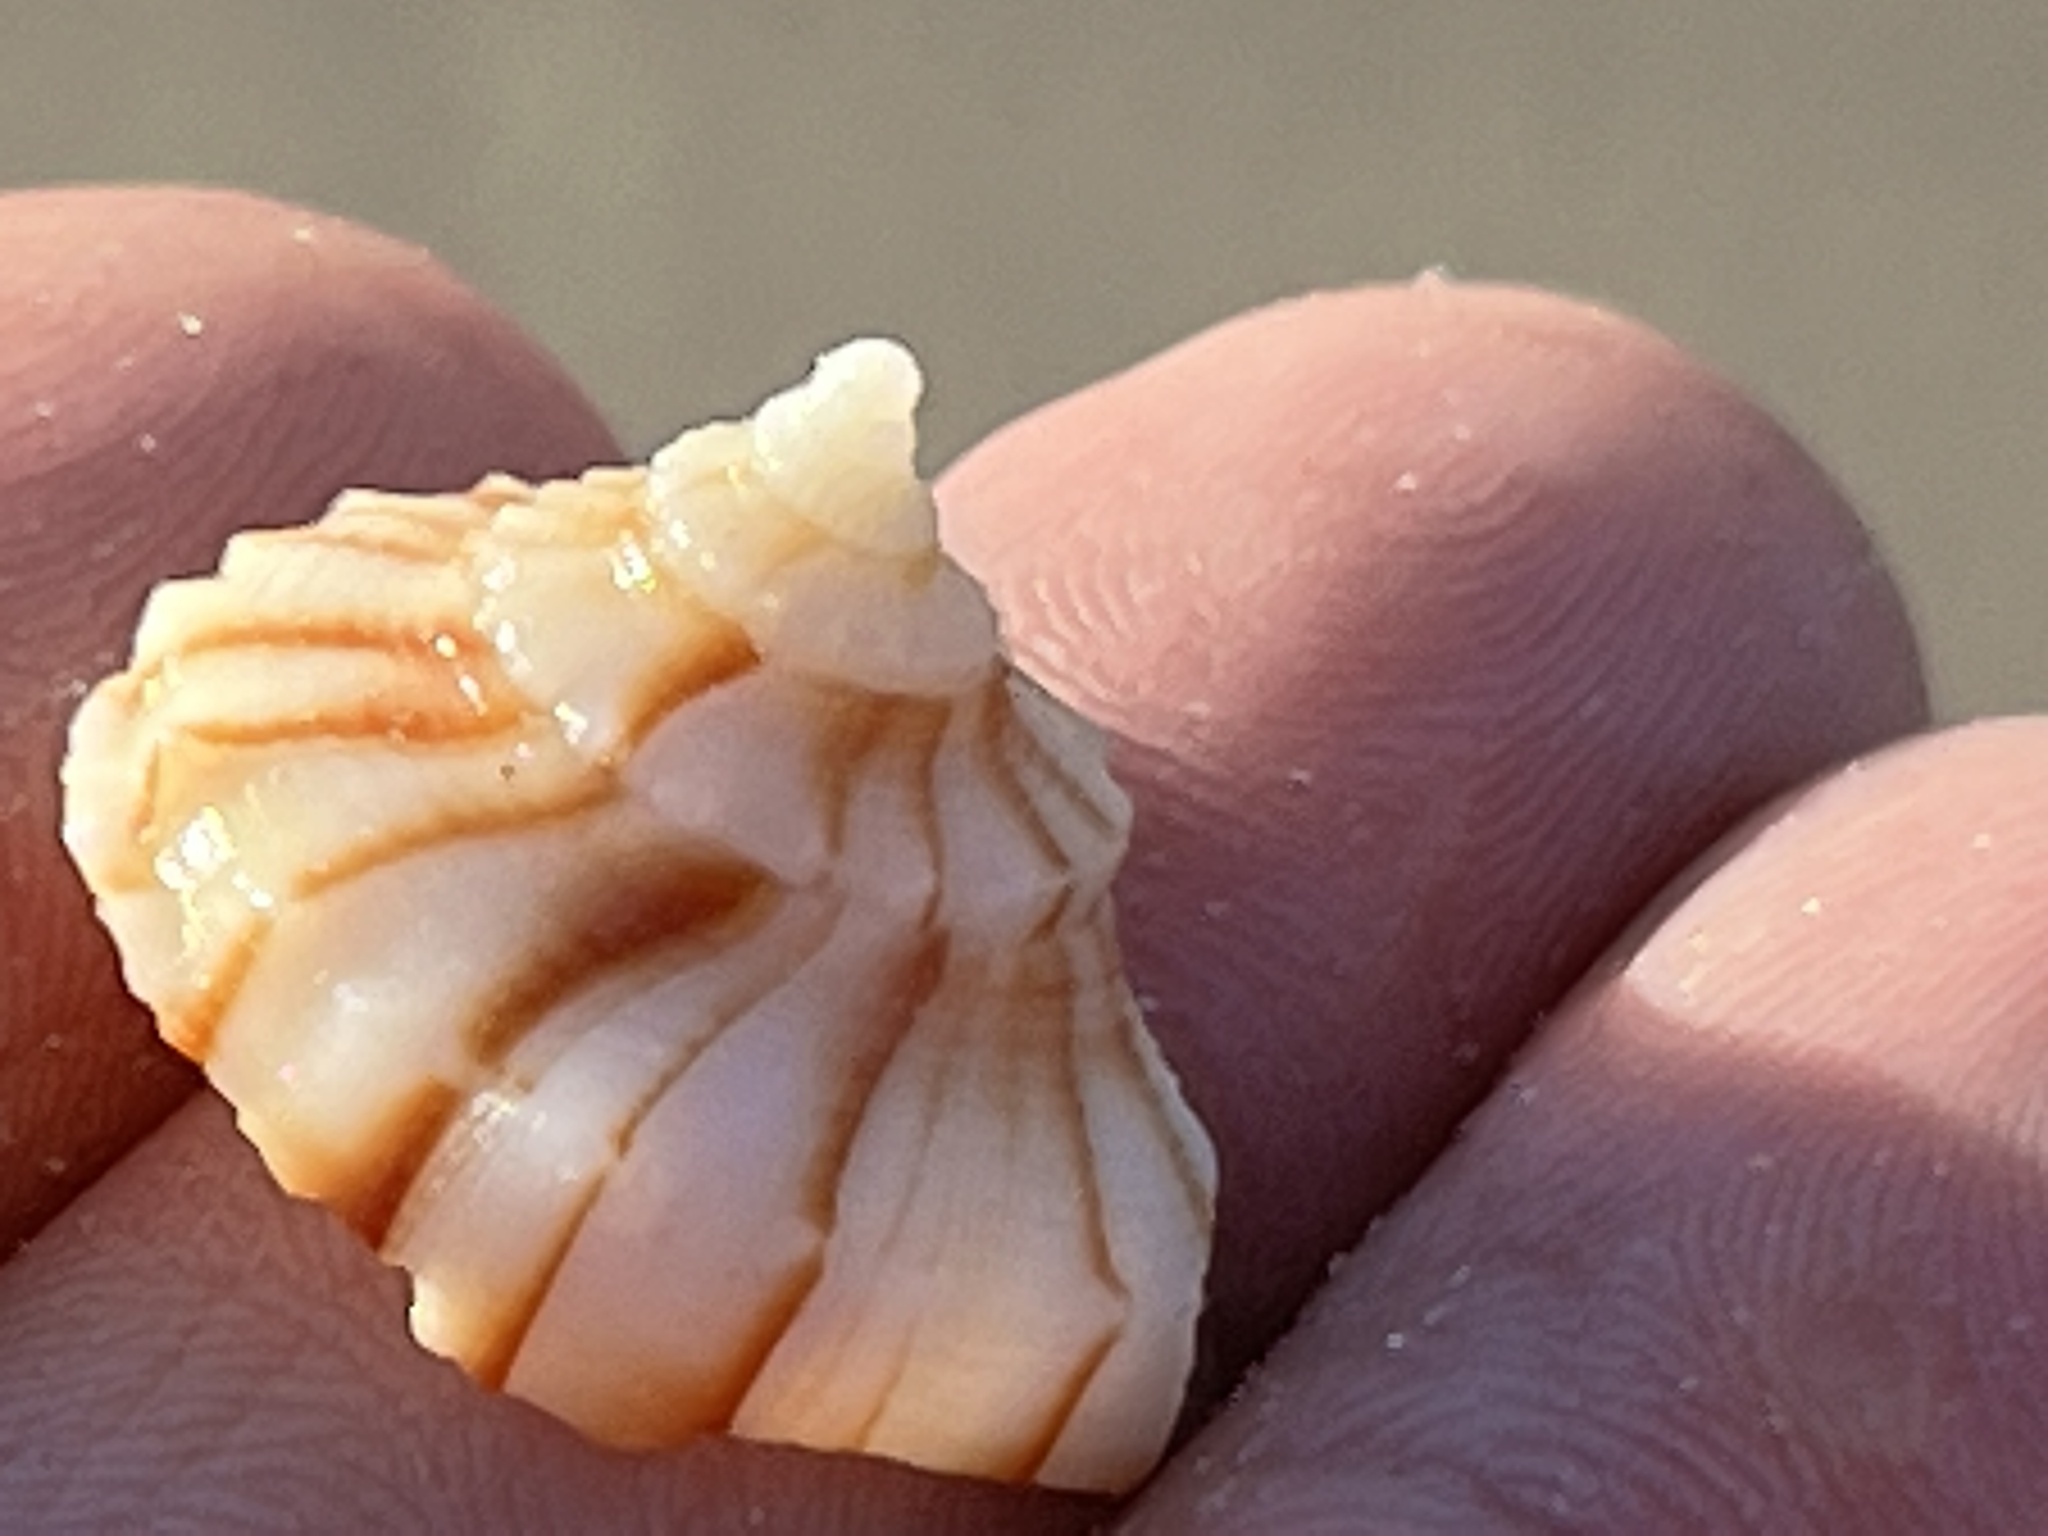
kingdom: Animalia
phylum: Mollusca
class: Gastropoda
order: Neogastropoda
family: Busyconidae
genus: Sinistrofulgur
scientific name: Sinistrofulgur pulleyi
